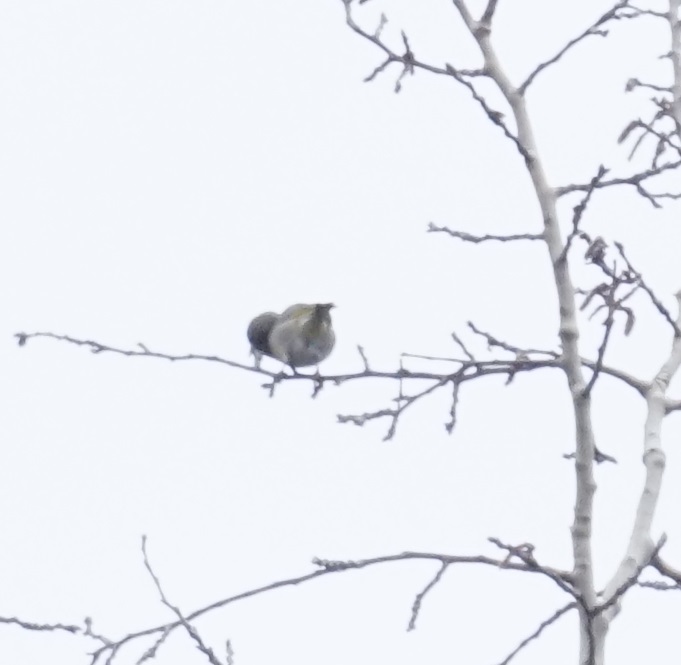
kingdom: Plantae
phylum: Tracheophyta
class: Liliopsida
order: Poales
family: Poaceae
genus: Chloris
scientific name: Chloris chloris
